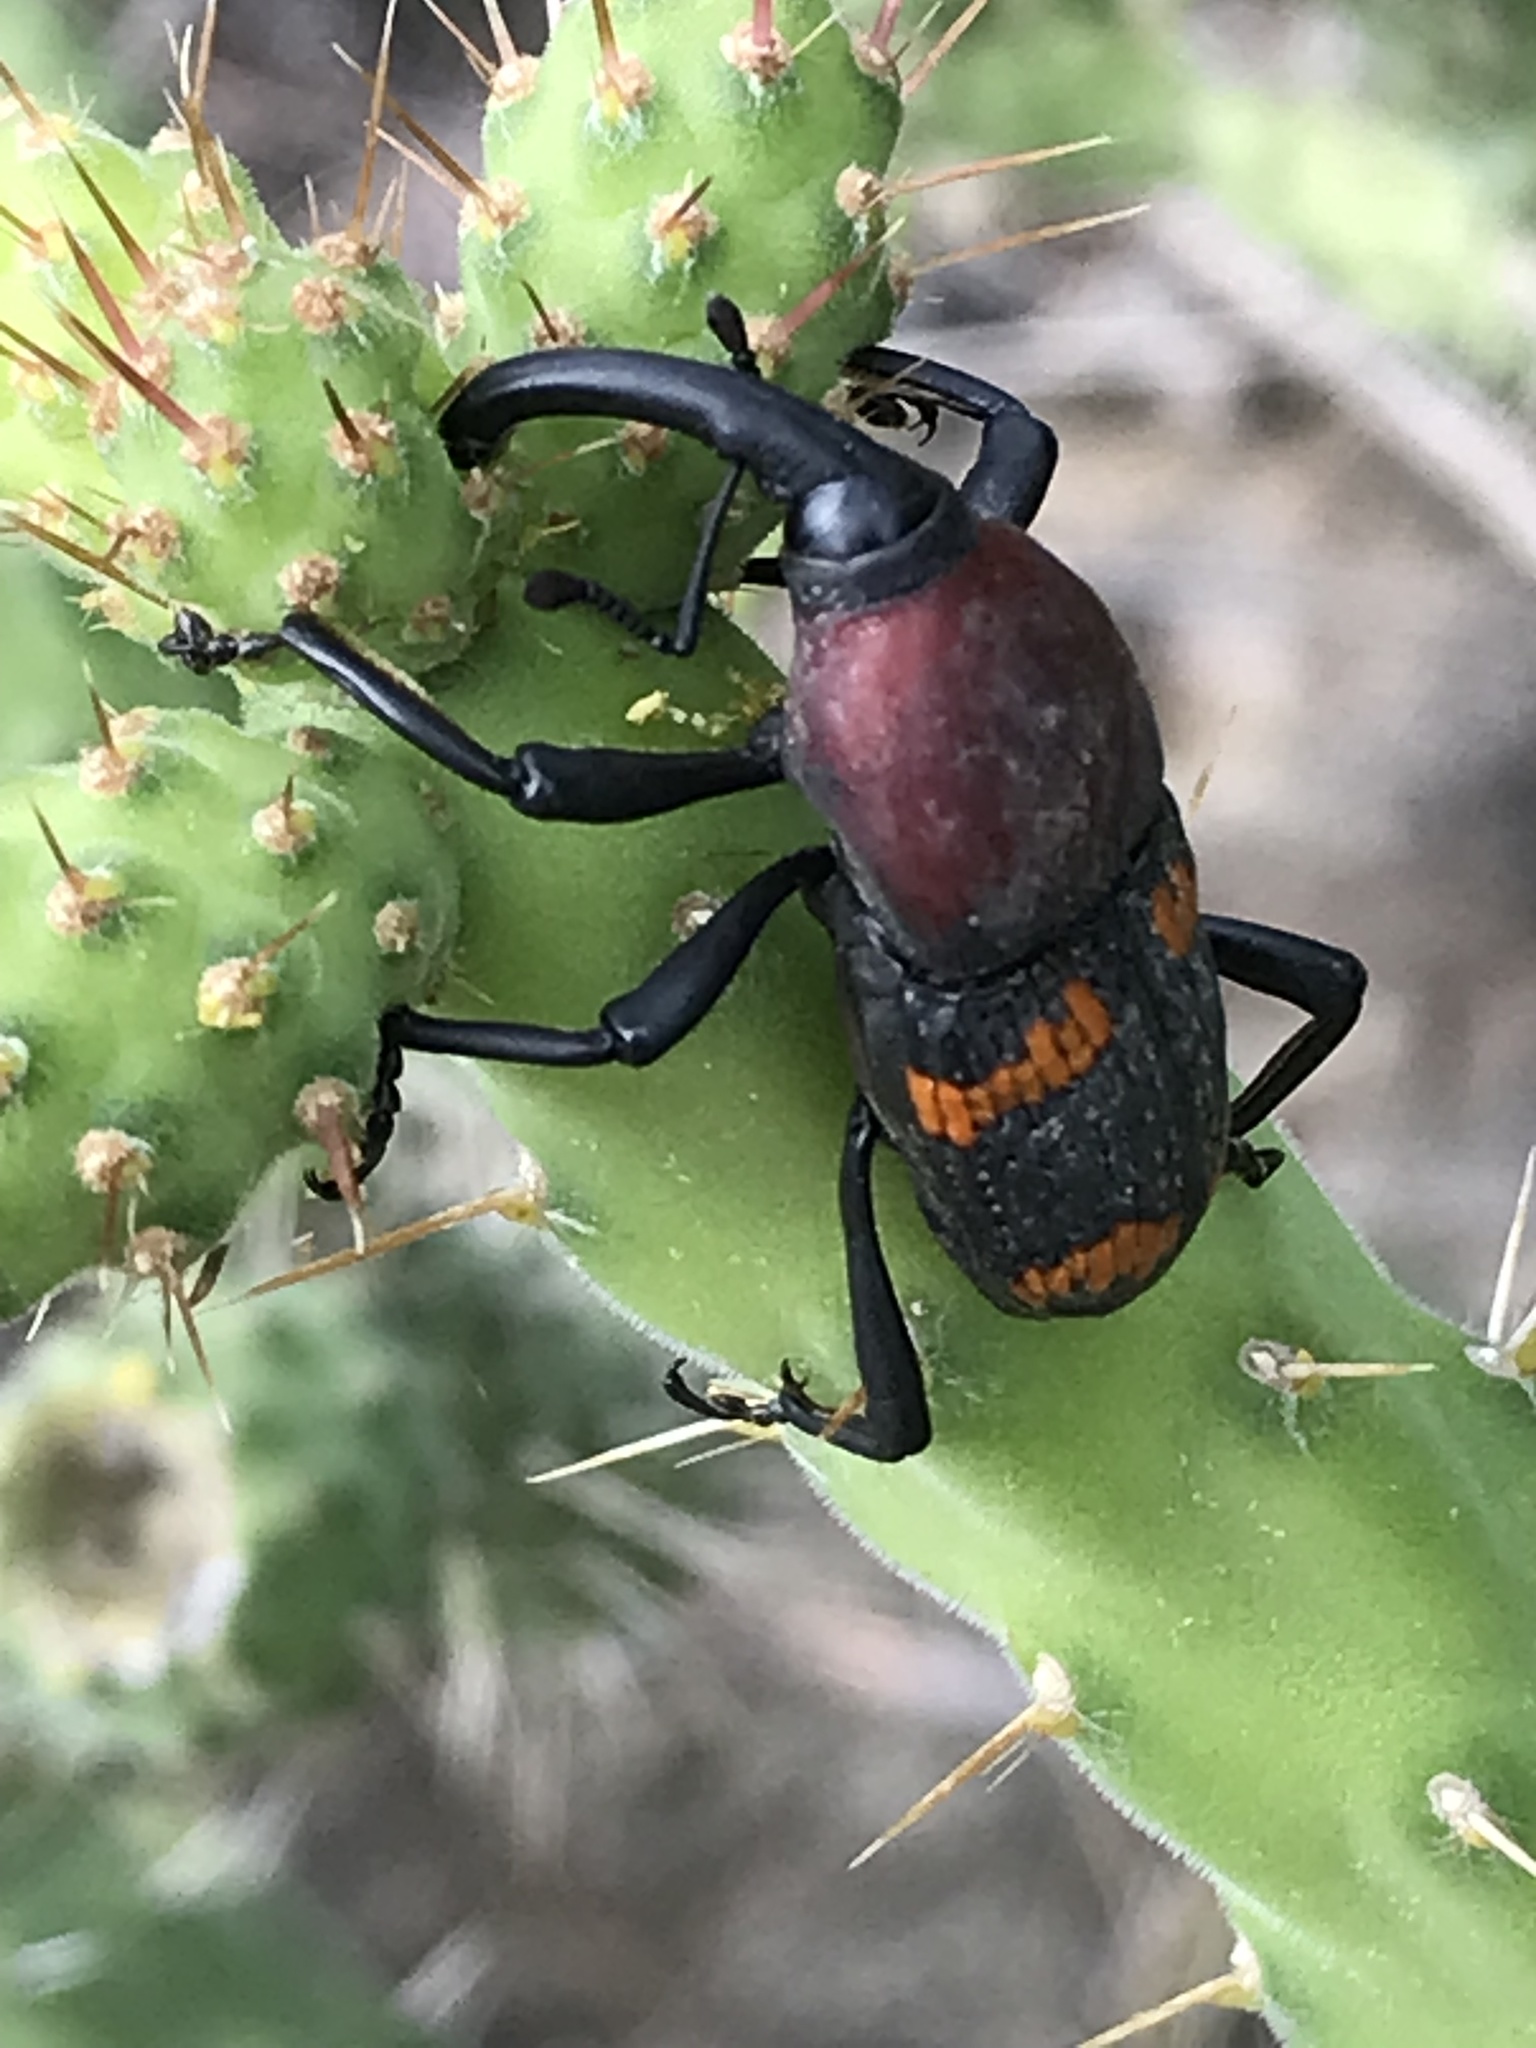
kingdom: Animalia
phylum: Arthropoda
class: Insecta
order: Coleoptera
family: Dryophthoridae
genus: Cactophagus
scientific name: Cactophagus
